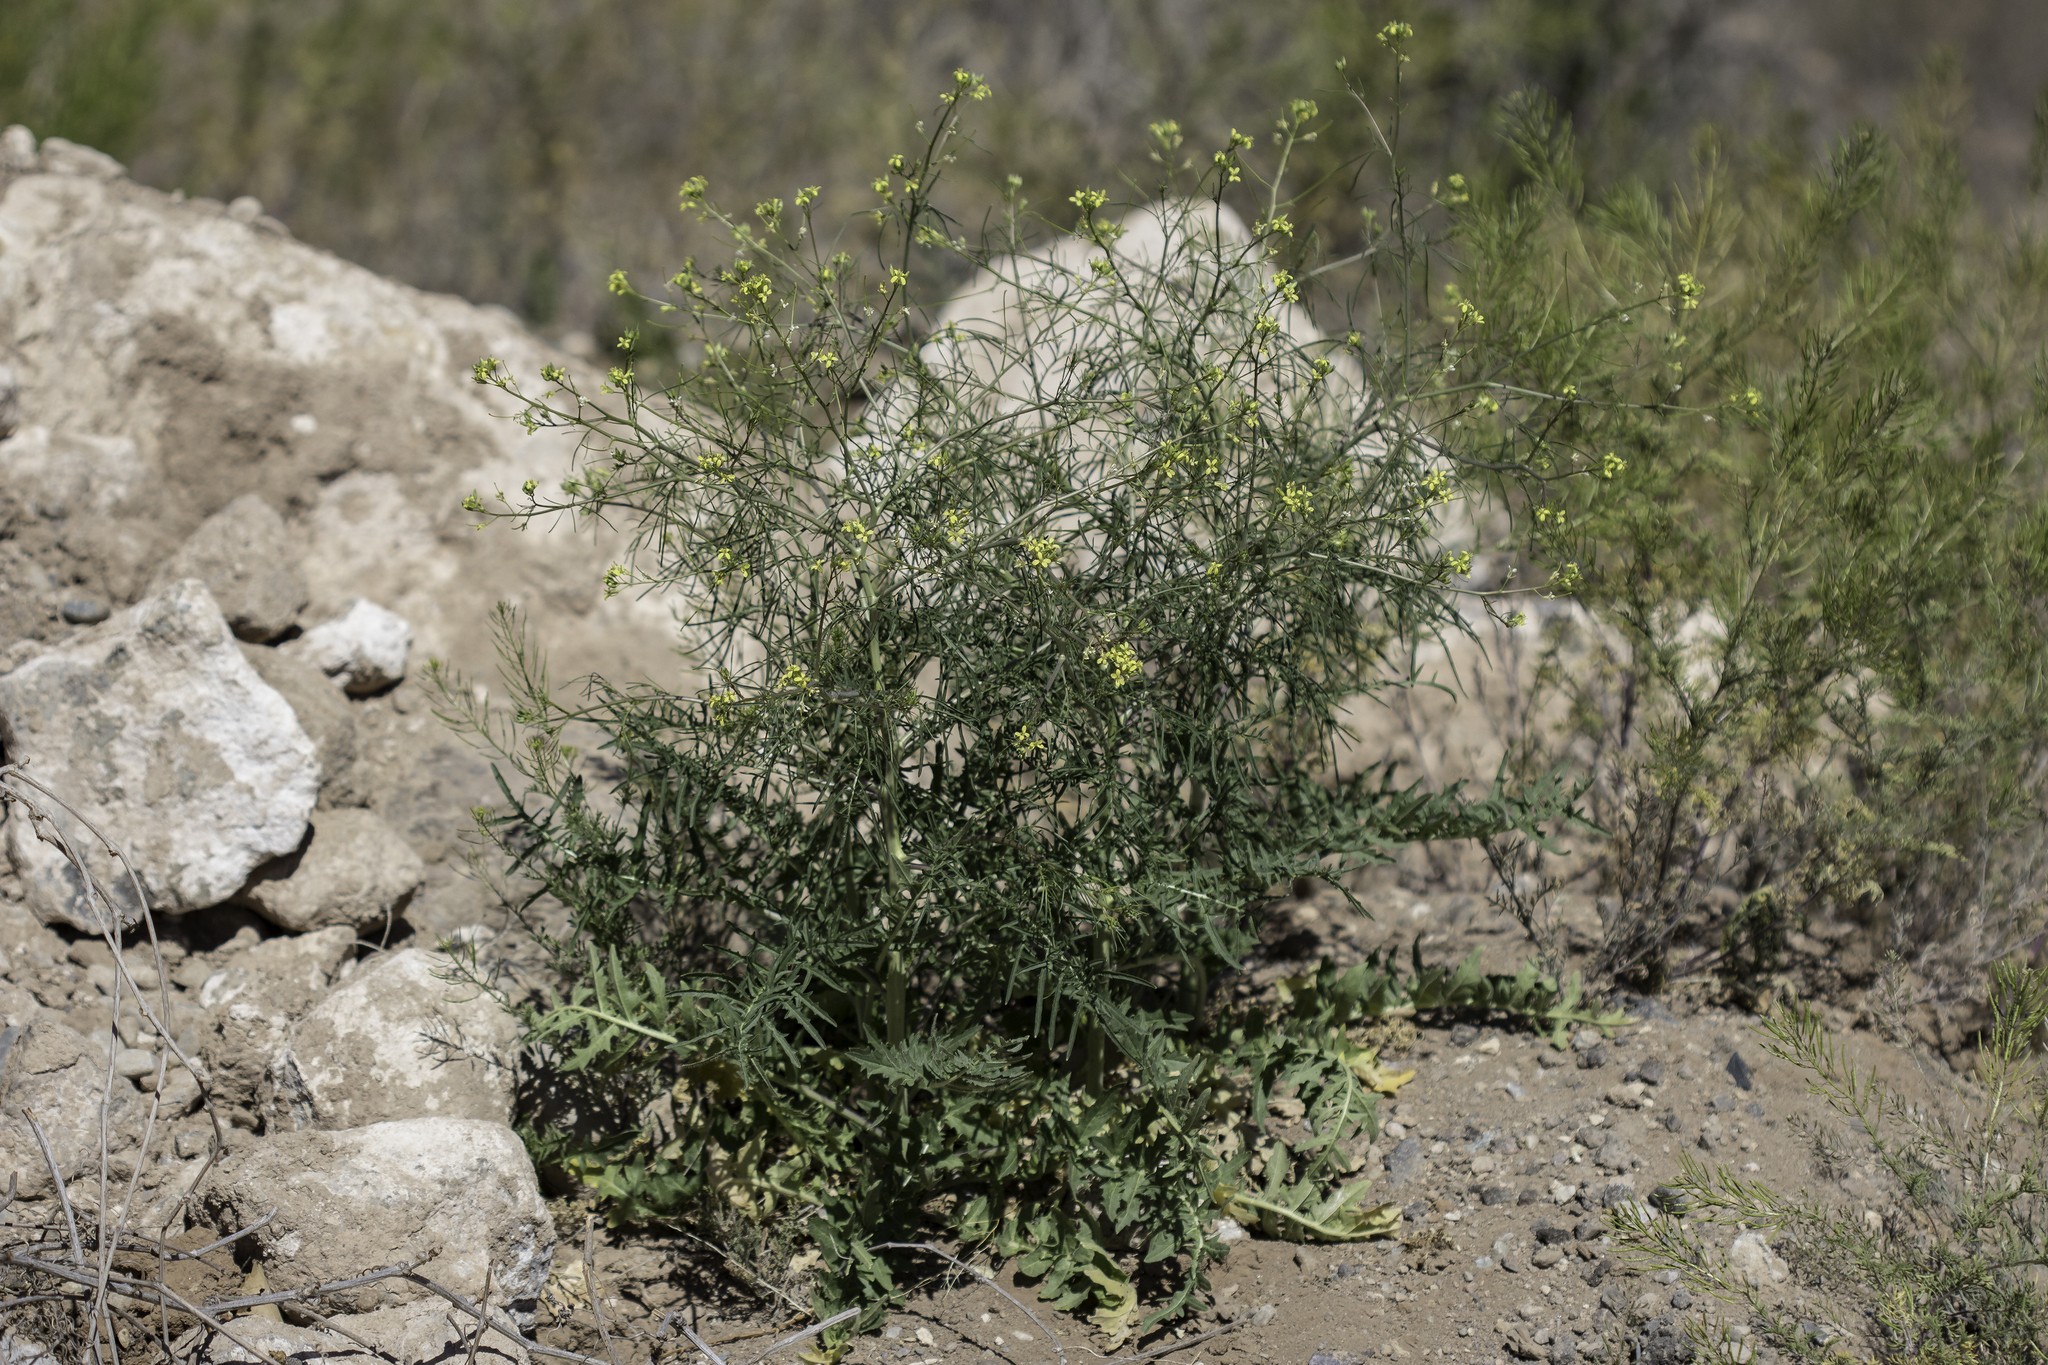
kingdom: Plantae
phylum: Tracheophyta
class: Magnoliopsida
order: Brassicales
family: Brassicaceae
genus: Sisymbrium
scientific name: Sisymbrium altissimum
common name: Tall rocket
